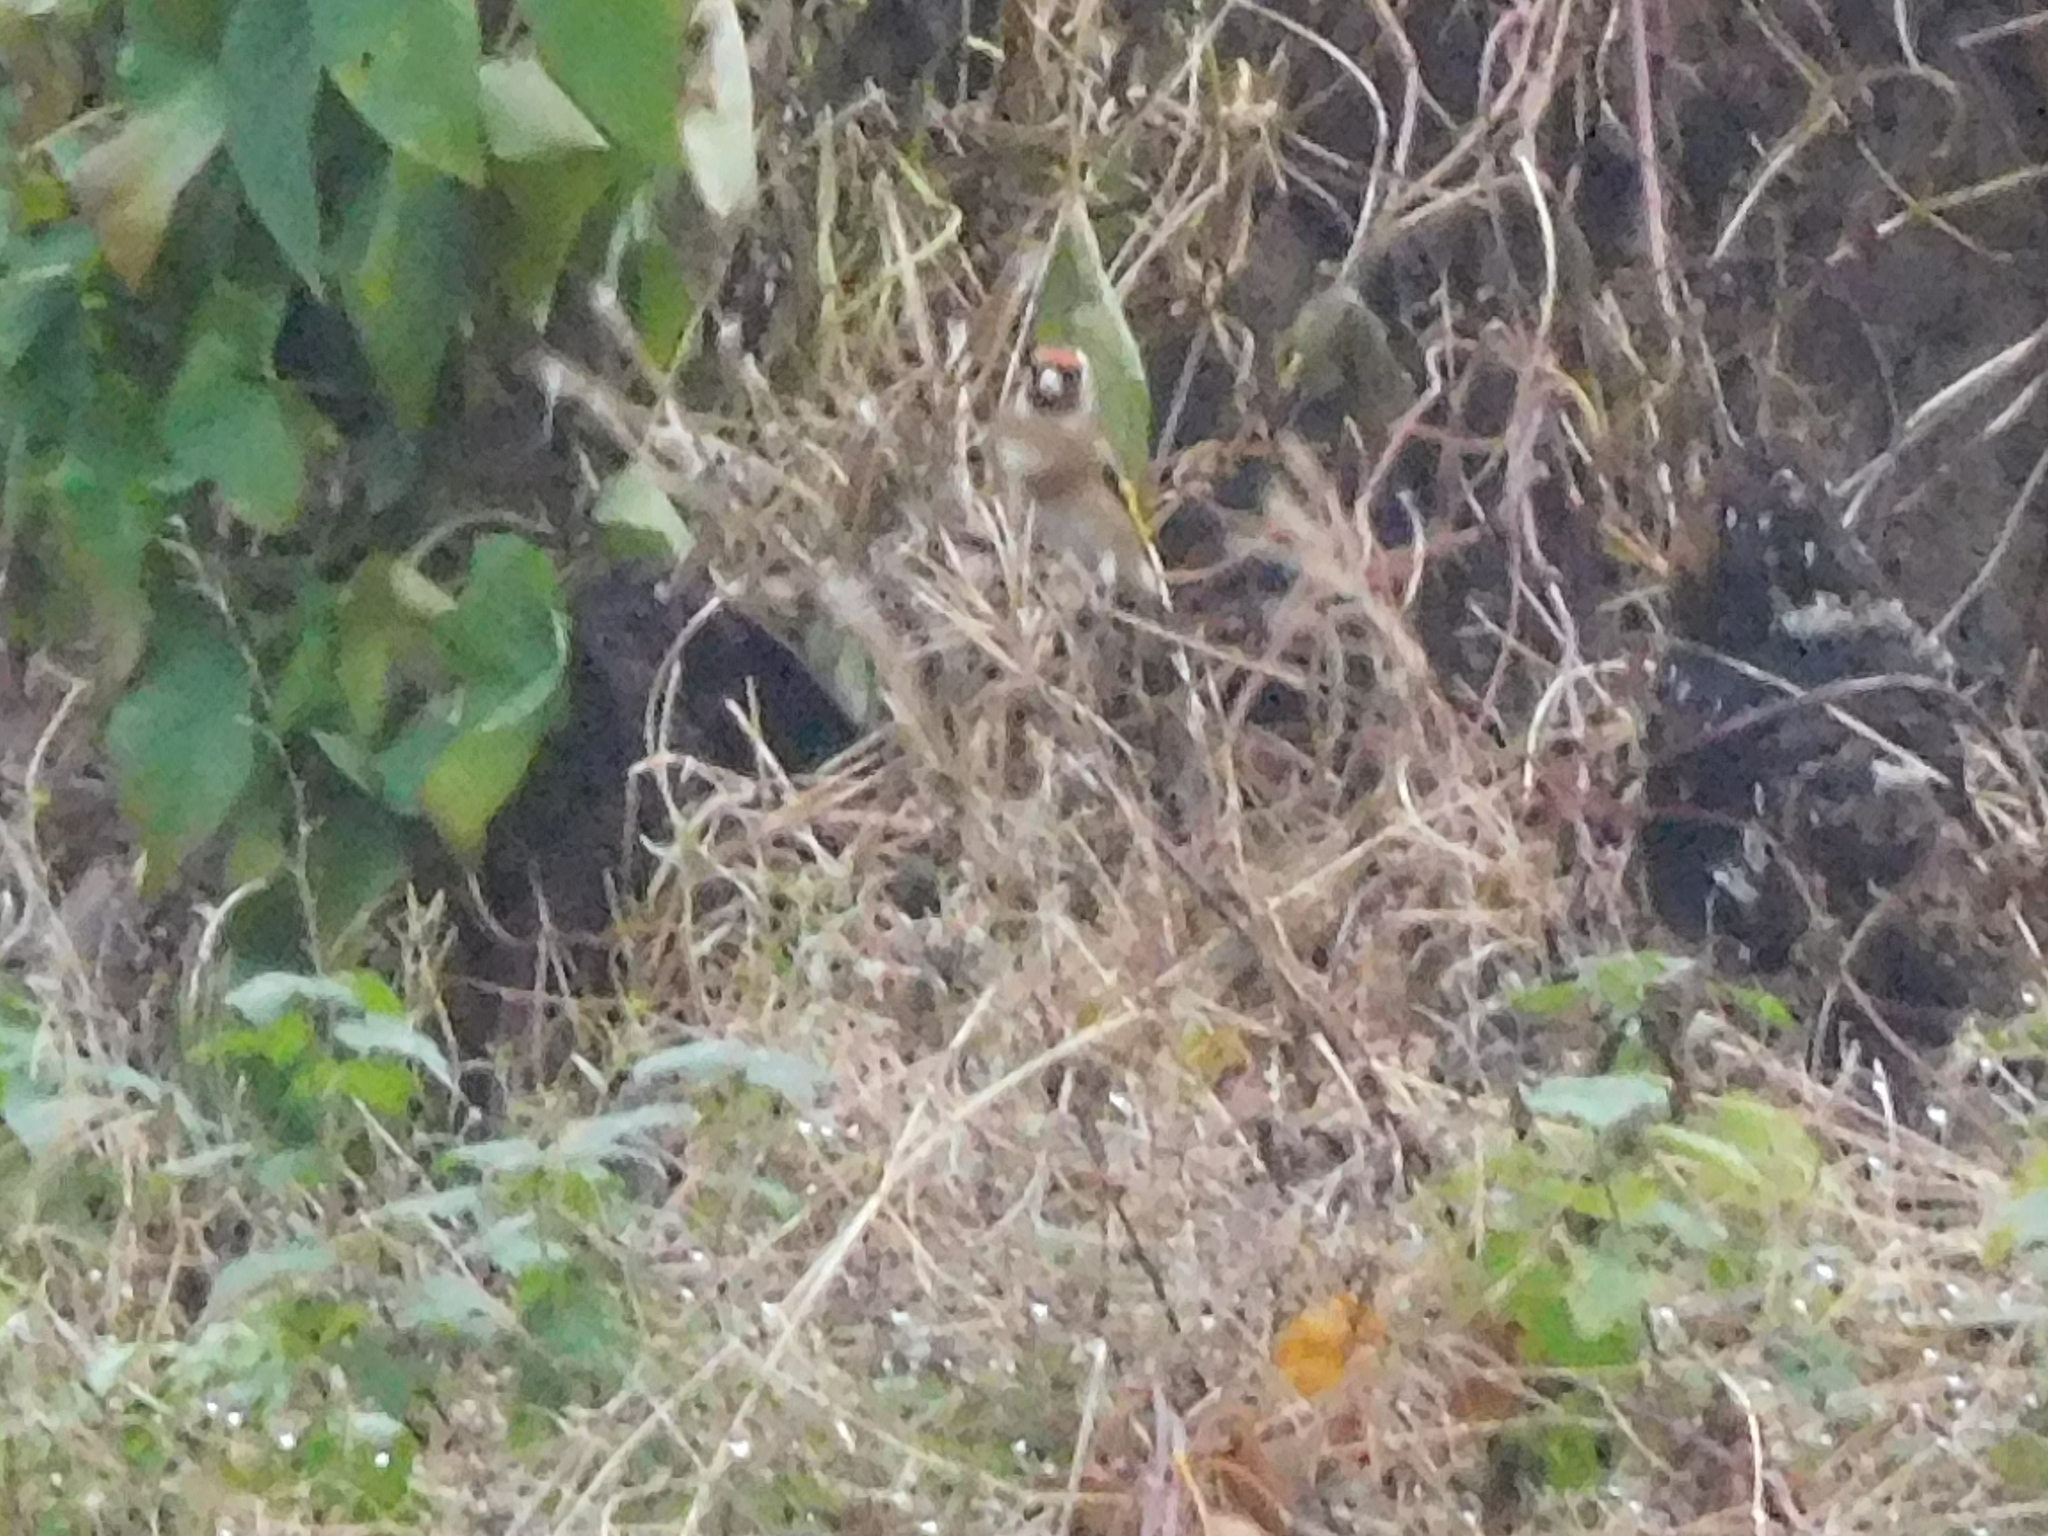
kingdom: Animalia
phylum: Chordata
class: Aves
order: Passeriformes
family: Fringillidae
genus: Carduelis
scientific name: Carduelis carduelis
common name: European goldfinch
